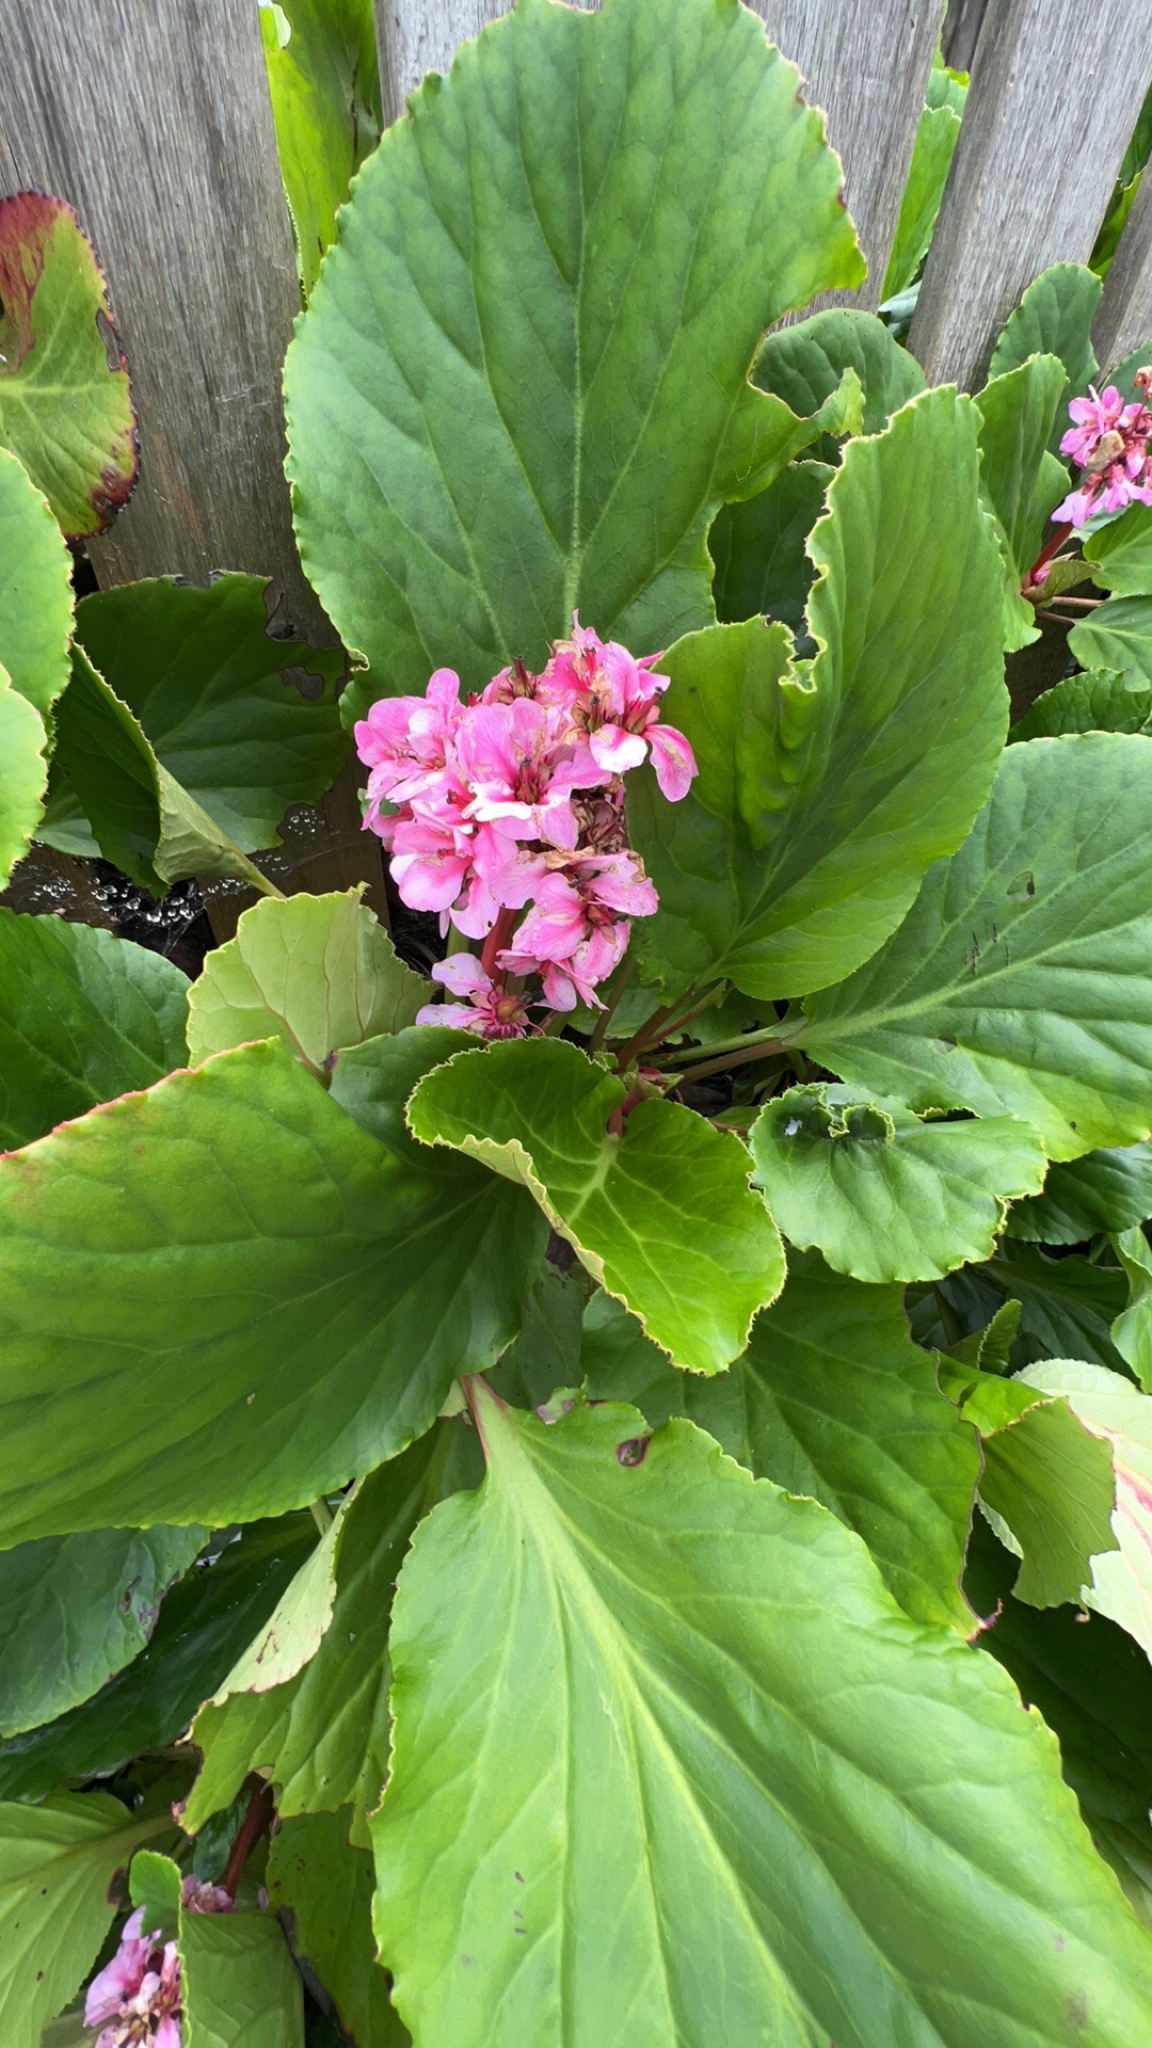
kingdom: Plantae
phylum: Tracheophyta
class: Magnoliopsida
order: Saxifragales
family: Saxifragaceae
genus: Bergenia
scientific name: Bergenia crassifolia
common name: Elephant-ears
